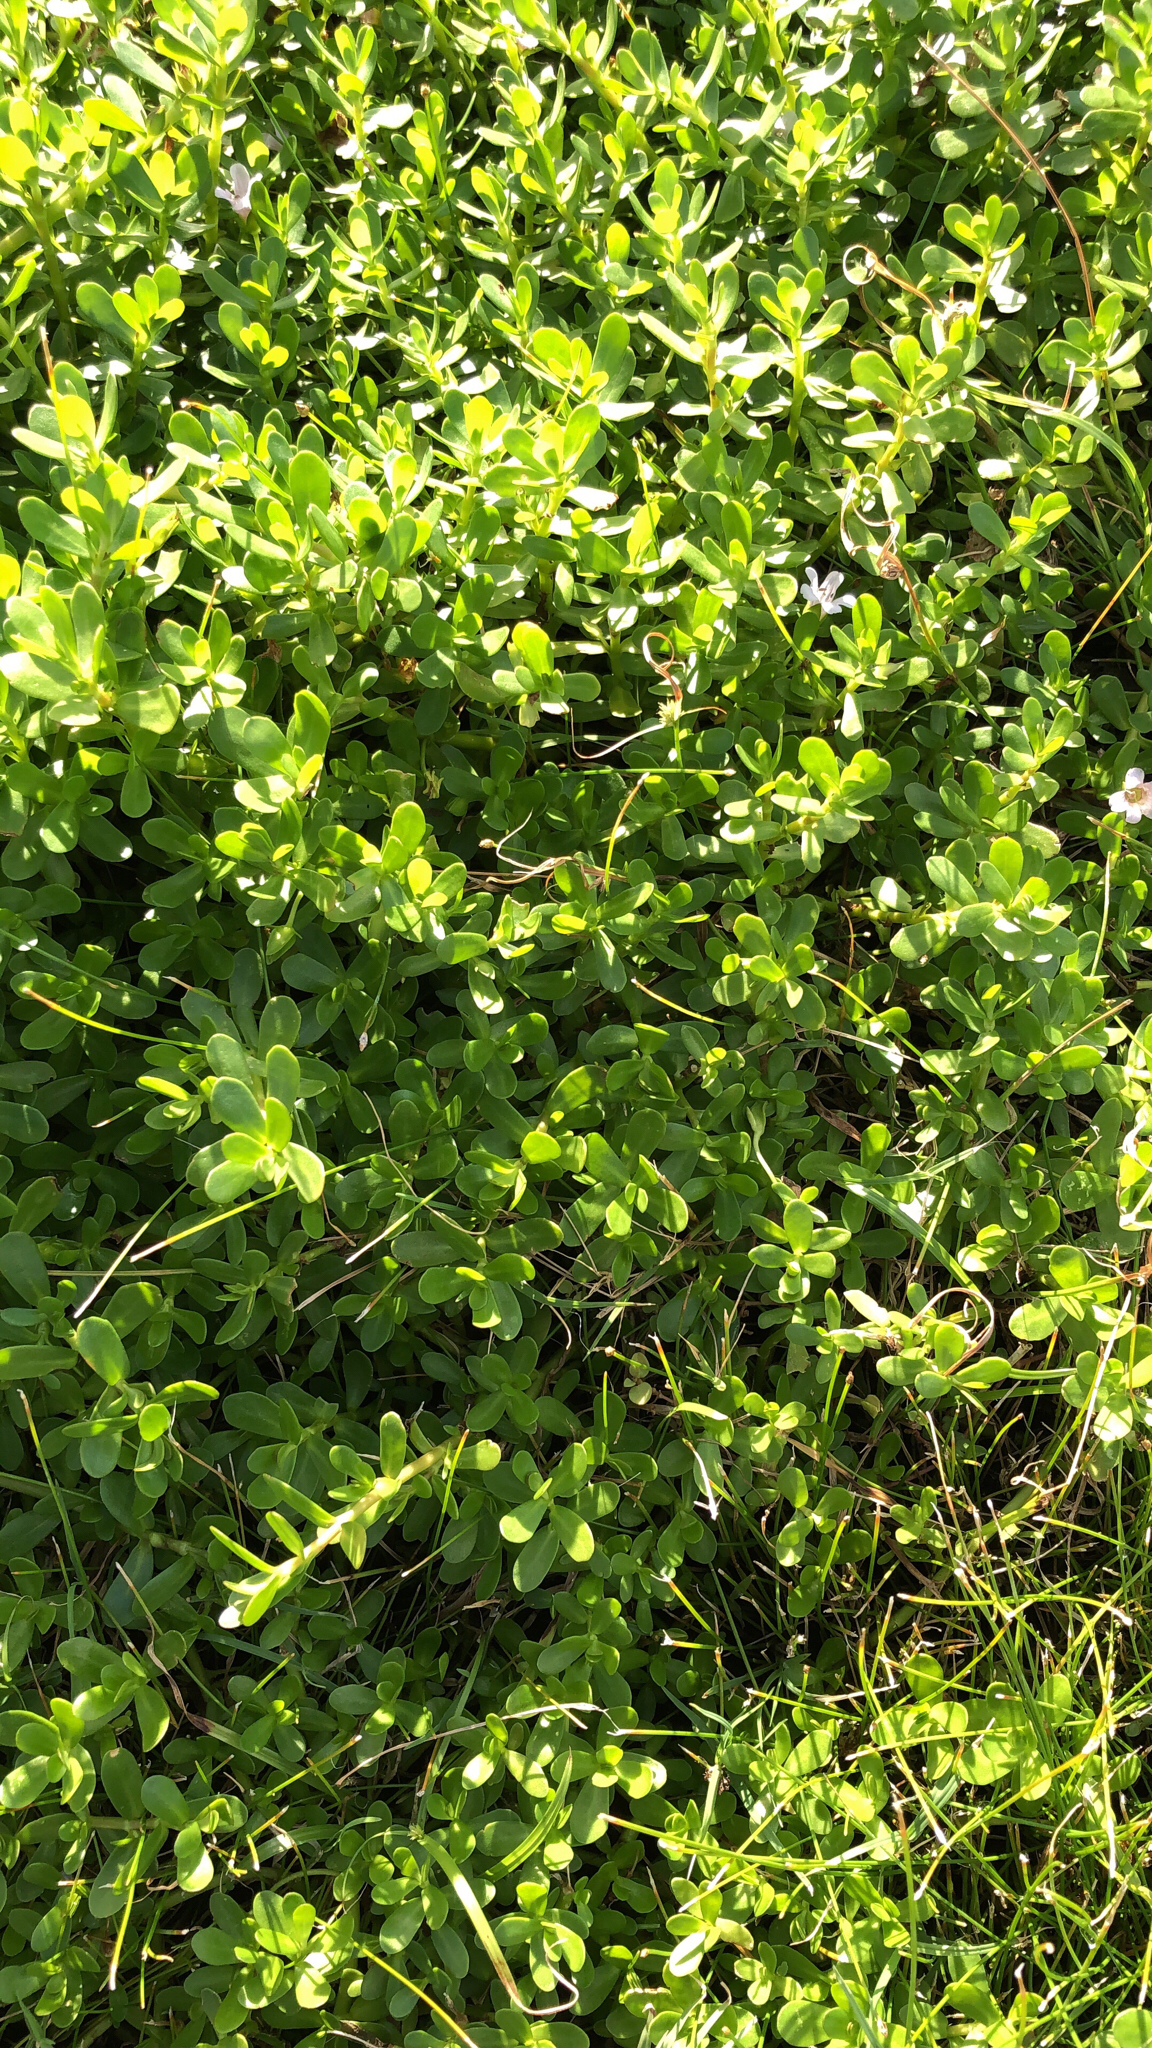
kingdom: Plantae
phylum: Tracheophyta
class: Magnoliopsida
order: Lamiales
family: Plantaginaceae
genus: Bacopa
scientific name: Bacopa monnieri
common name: Indian-pennywort
